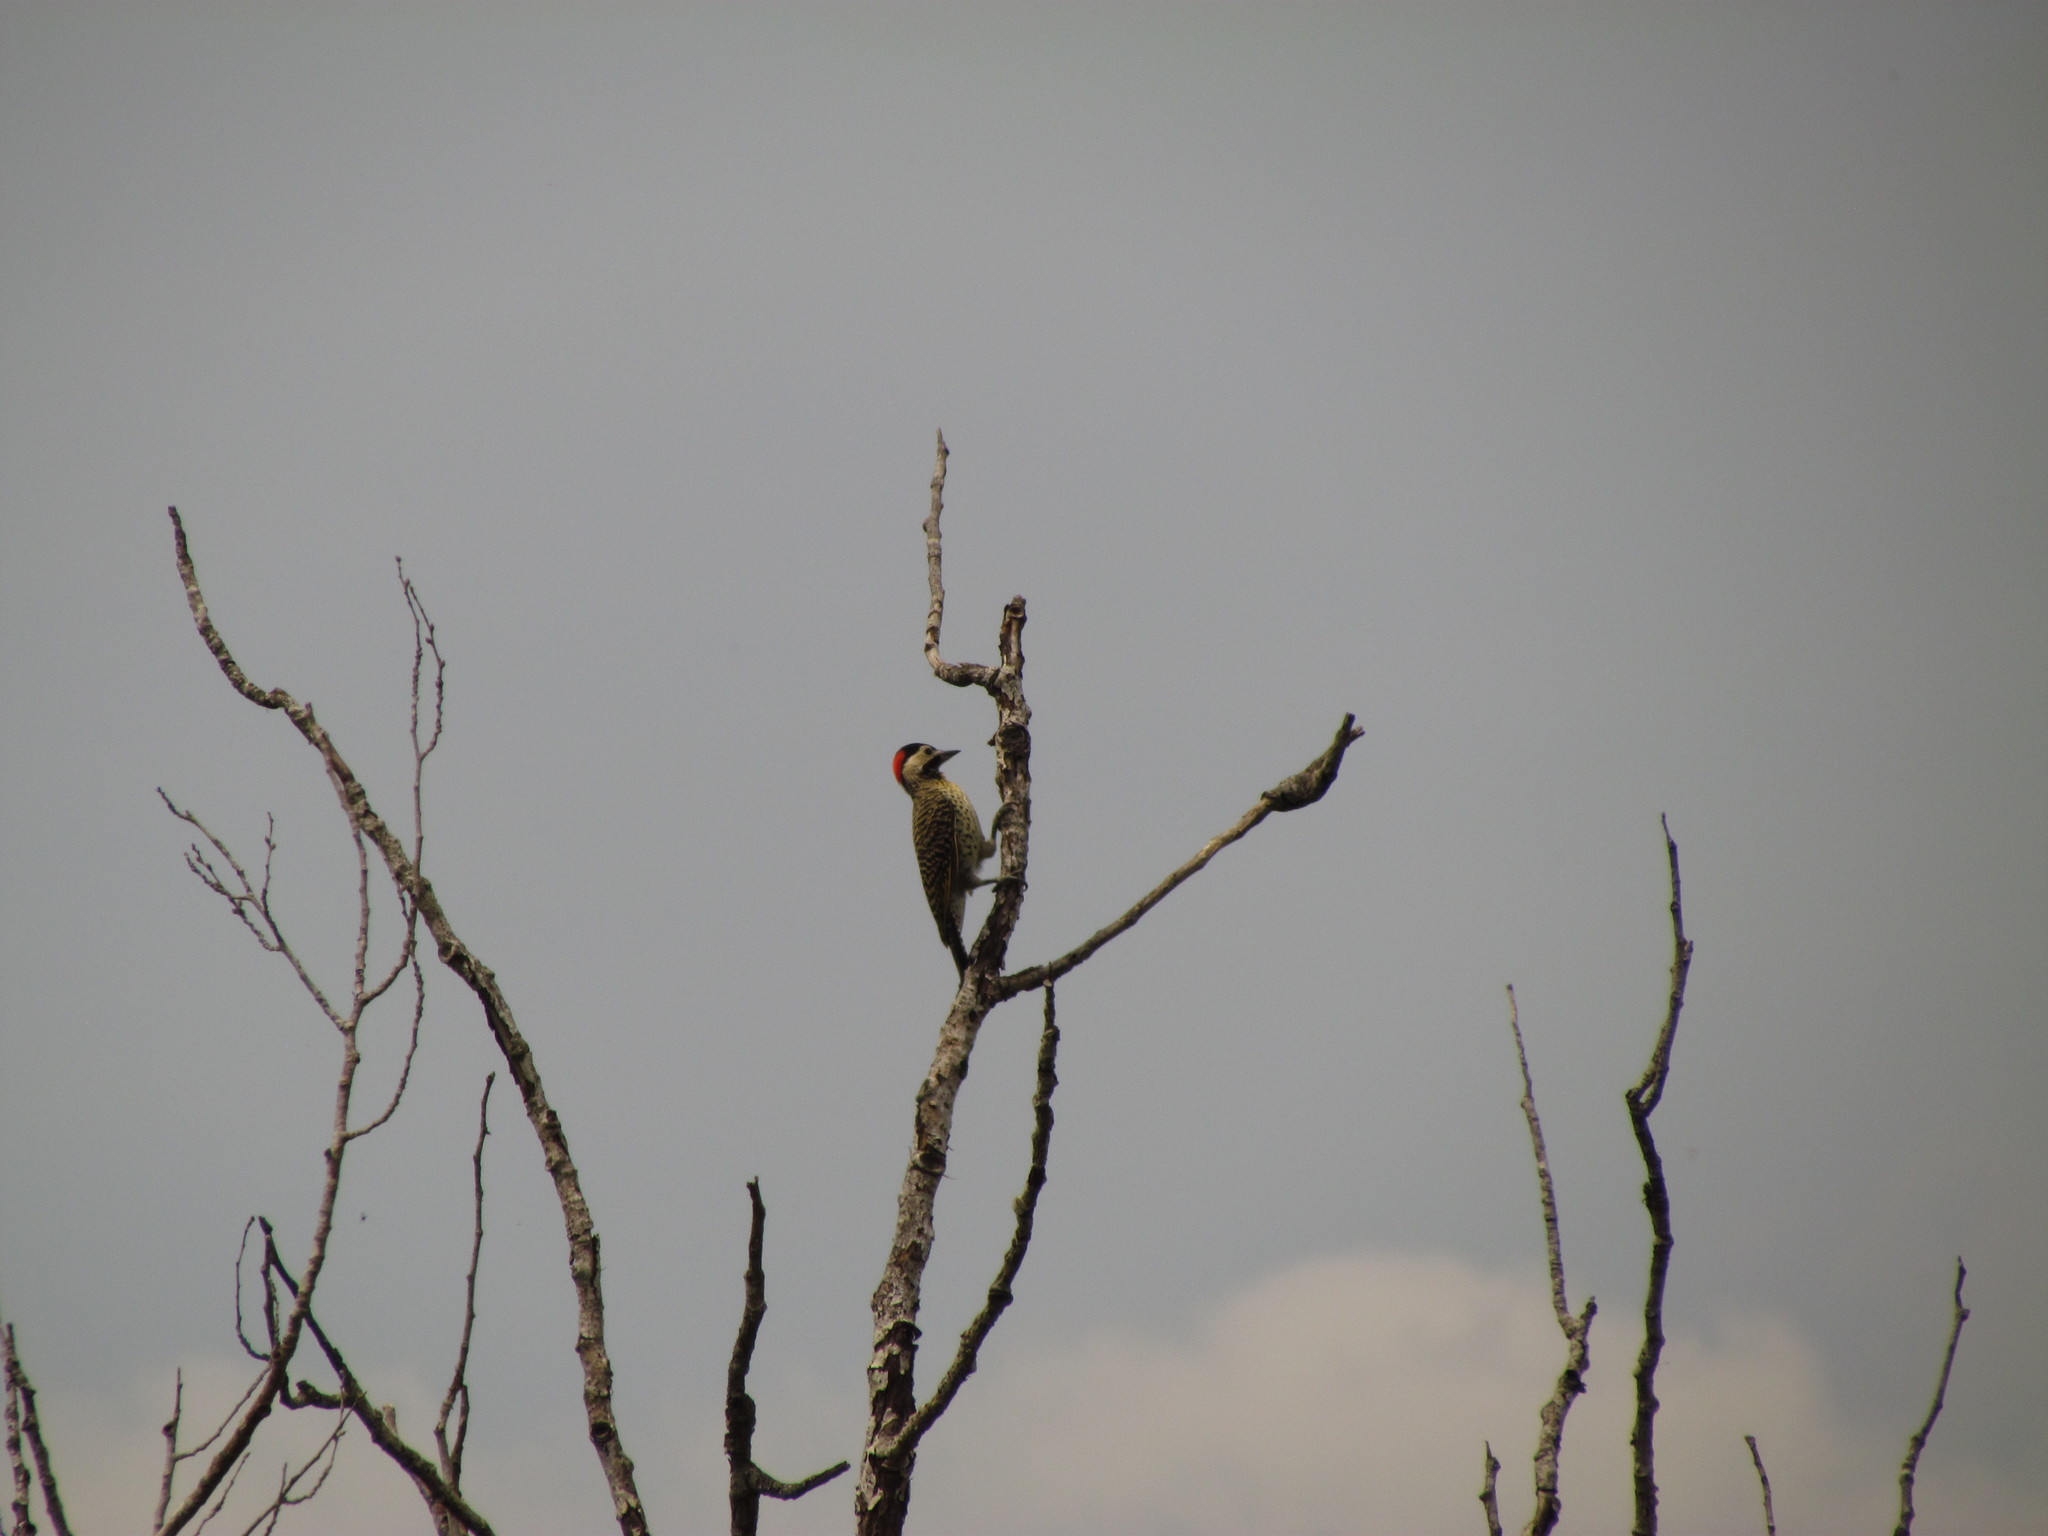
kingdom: Animalia
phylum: Chordata
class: Aves
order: Piciformes
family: Picidae
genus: Colaptes
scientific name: Colaptes melanochloros
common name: Green-barred woodpecker
